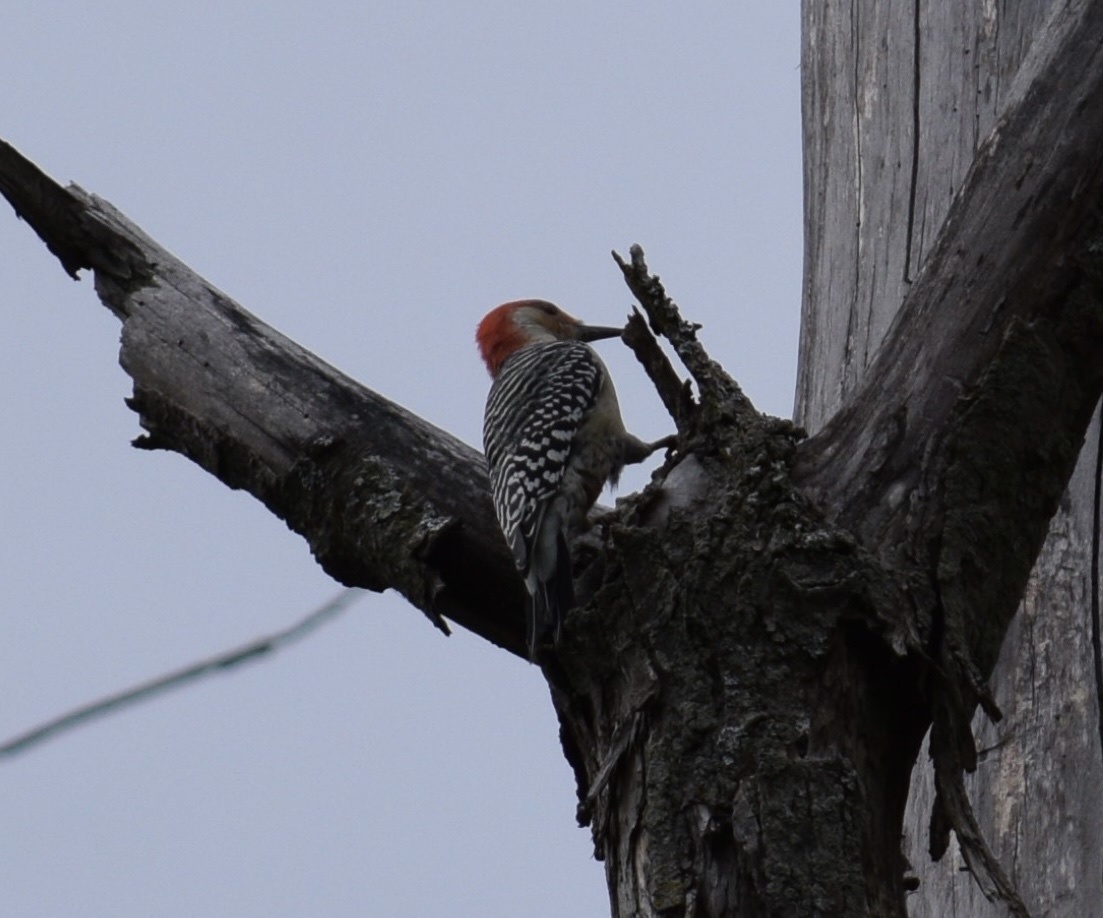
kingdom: Animalia
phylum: Chordata
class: Aves
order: Piciformes
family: Picidae
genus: Melanerpes
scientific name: Melanerpes carolinus
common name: Red-bellied woodpecker
